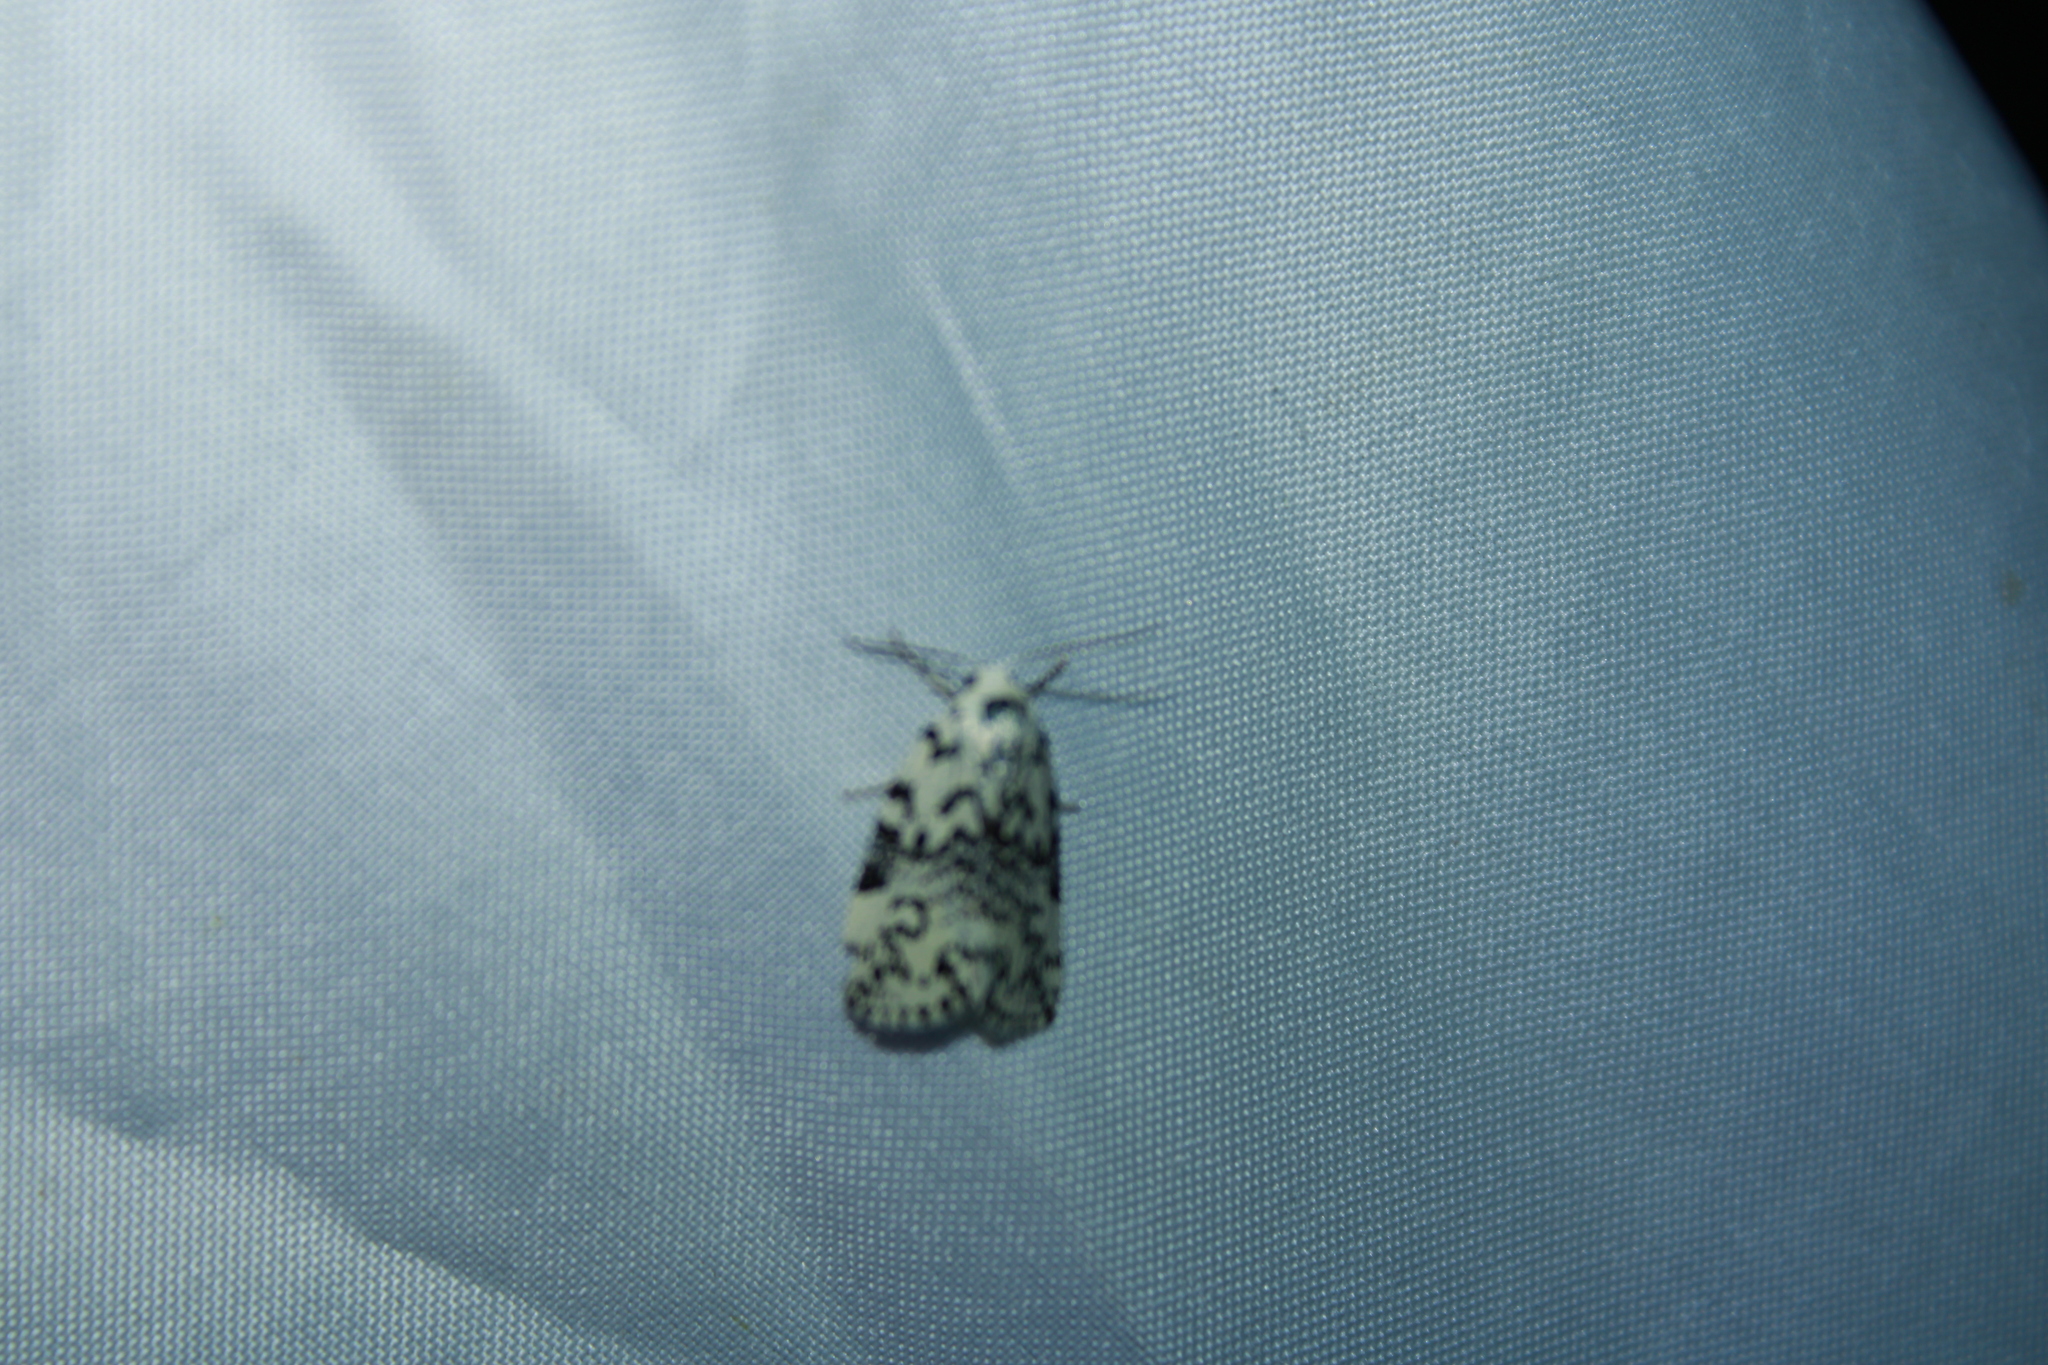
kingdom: Animalia
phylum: Arthropoda
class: Insecta
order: Lepidoptera
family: Noctuidae
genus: Polygrammate
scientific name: Polygrammate hebraeicum
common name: Hebrew moth
